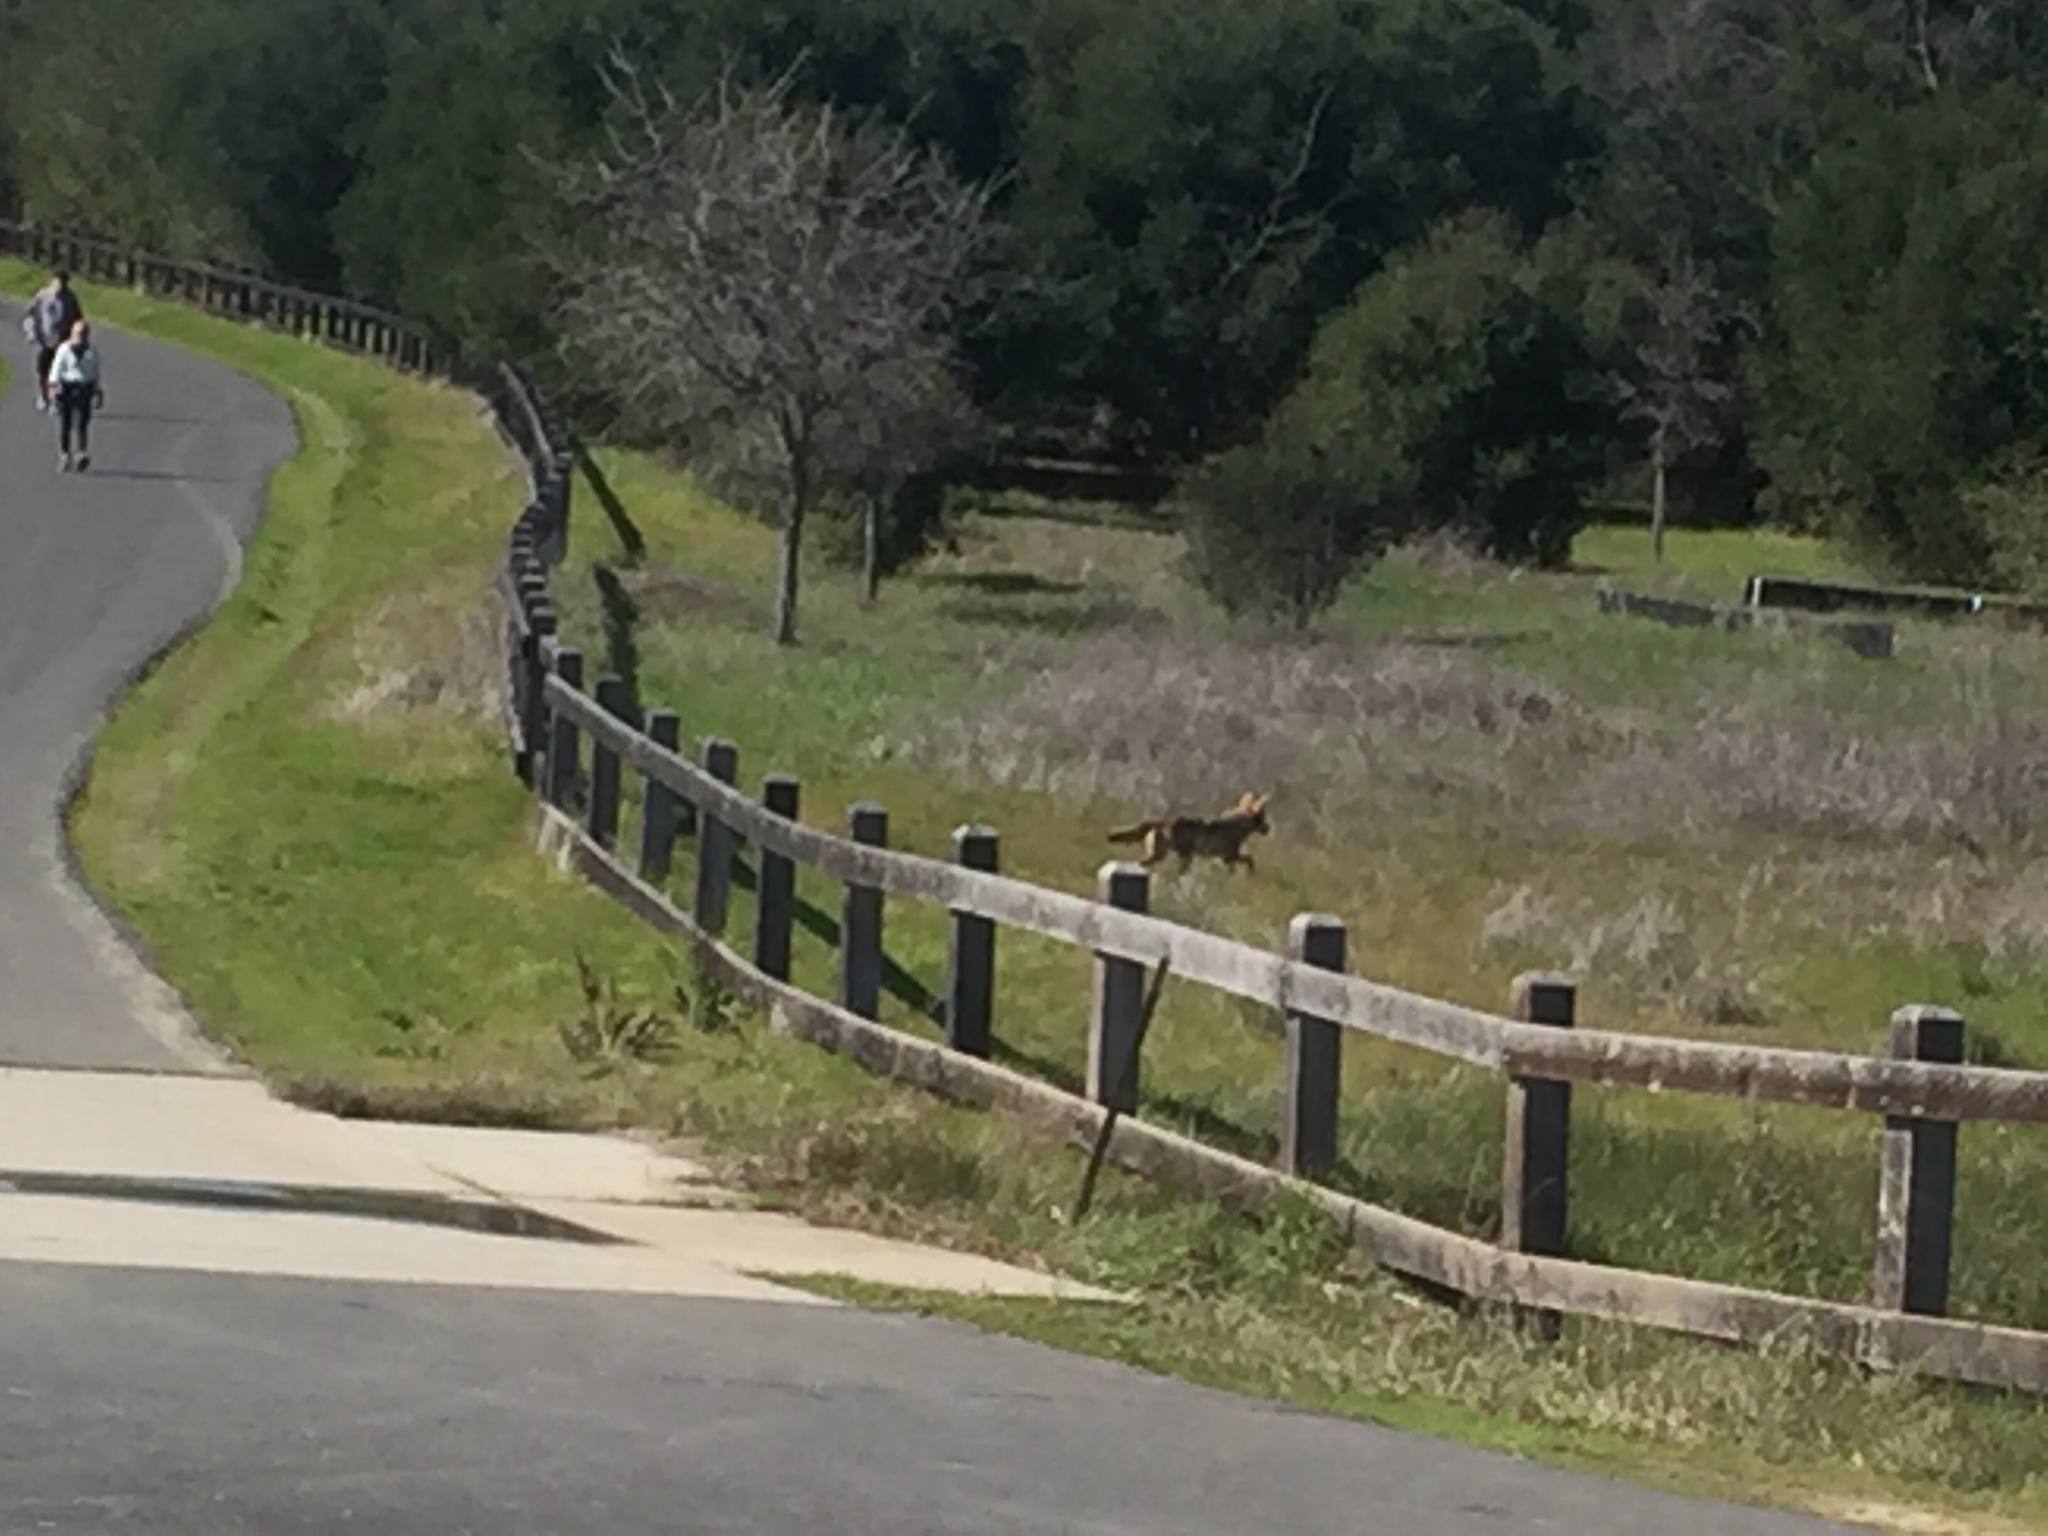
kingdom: Animalia
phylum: Chordata
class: Mammalia
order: Carnivora
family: Canidae
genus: Canis
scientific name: Canis latrans
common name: Coyote
